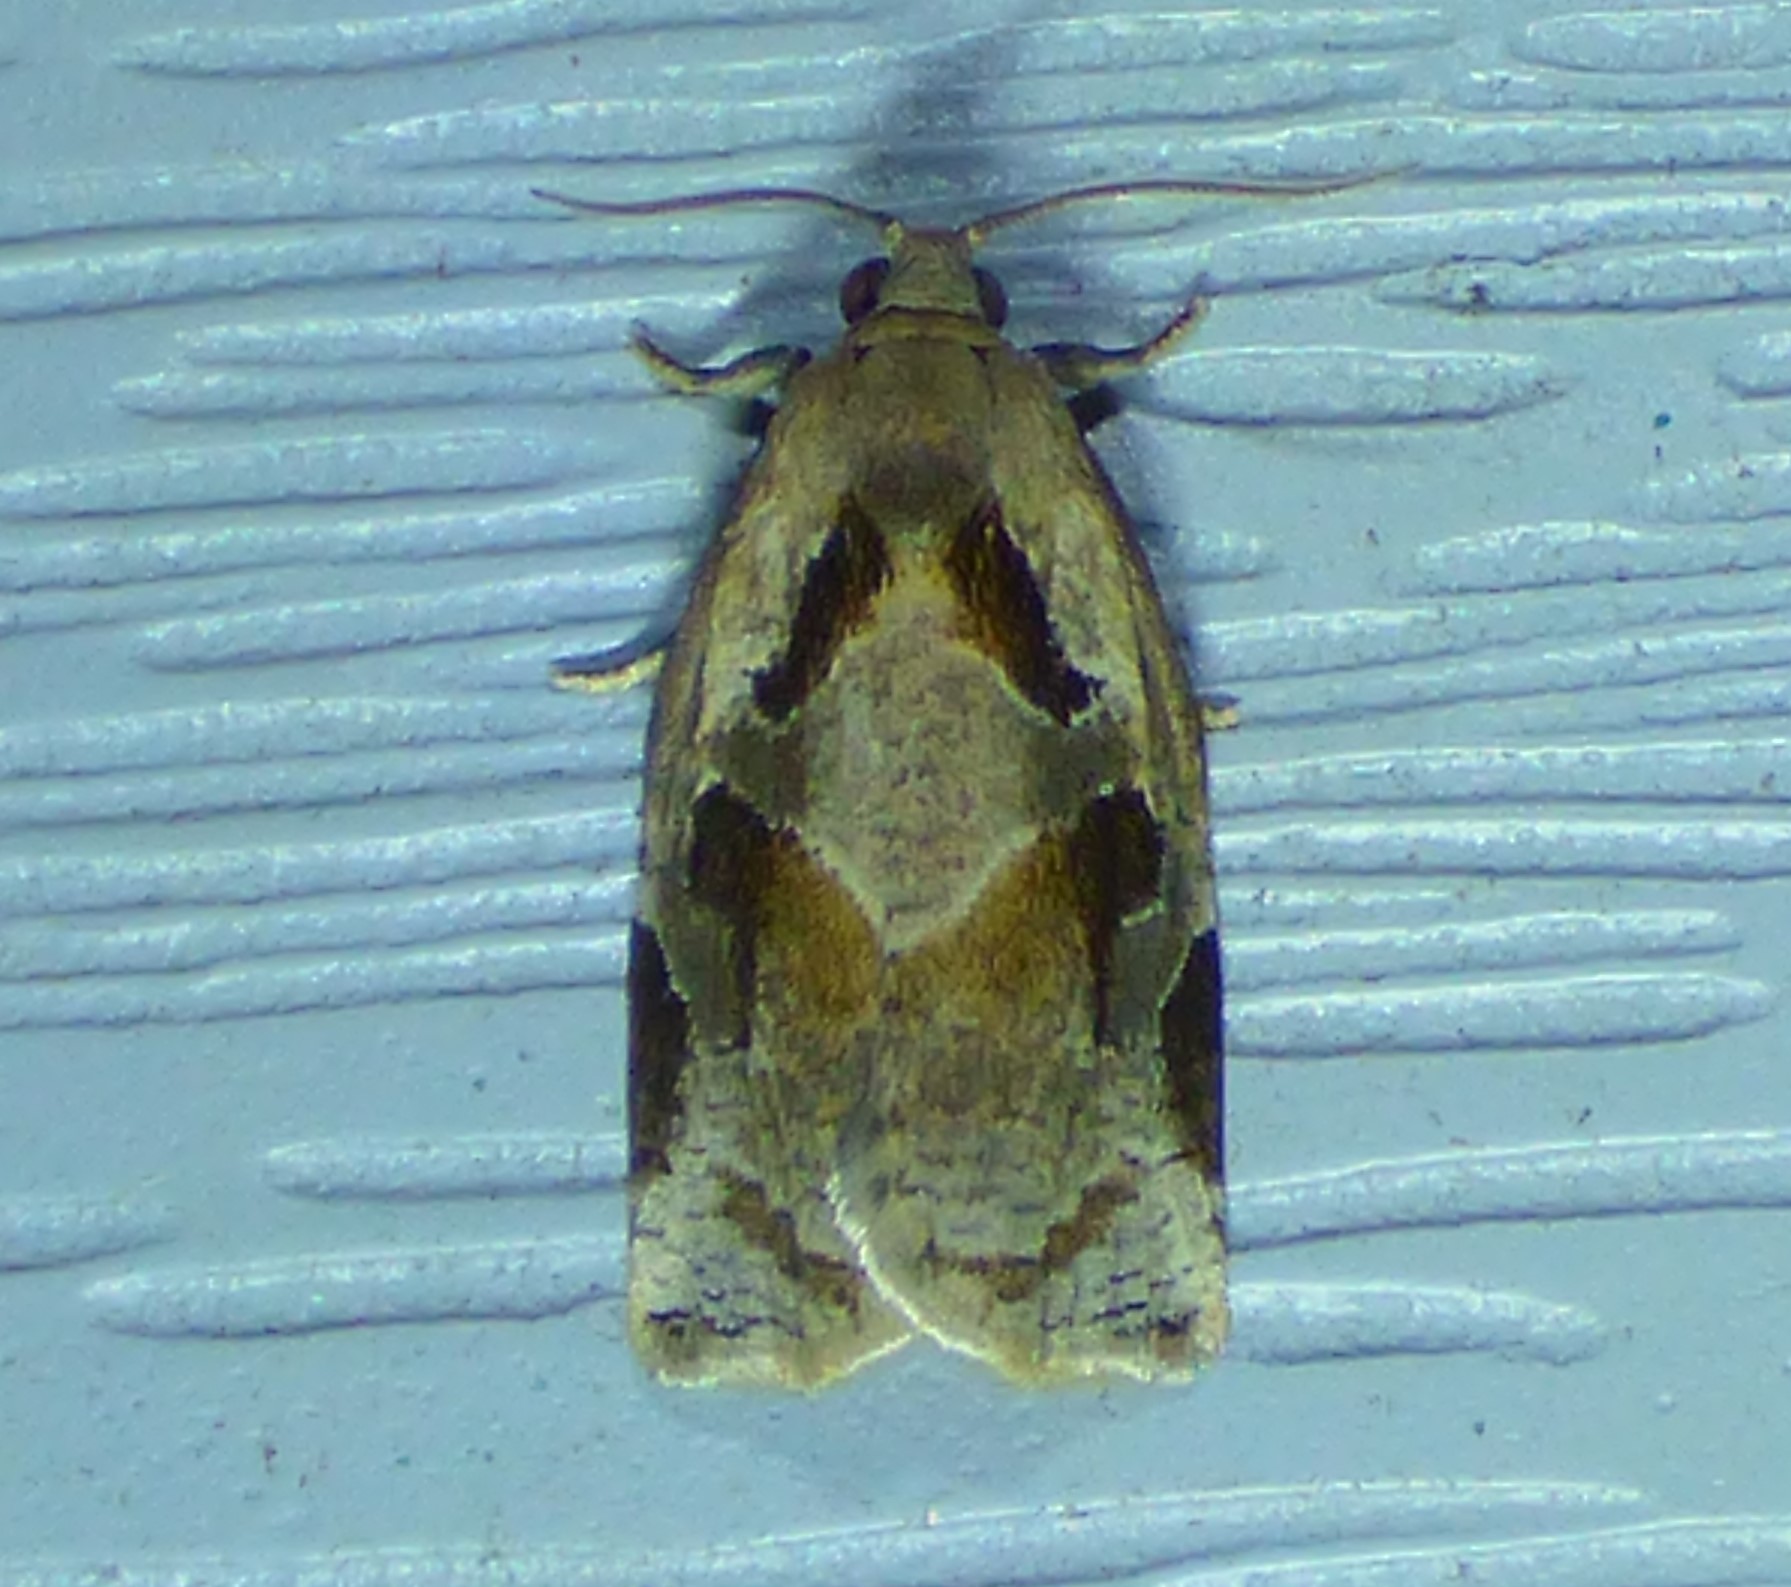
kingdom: Animalia
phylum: Arthropoda
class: Insecta
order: Lepidoptera
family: Tortricidae
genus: Archips
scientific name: Archips grisea
